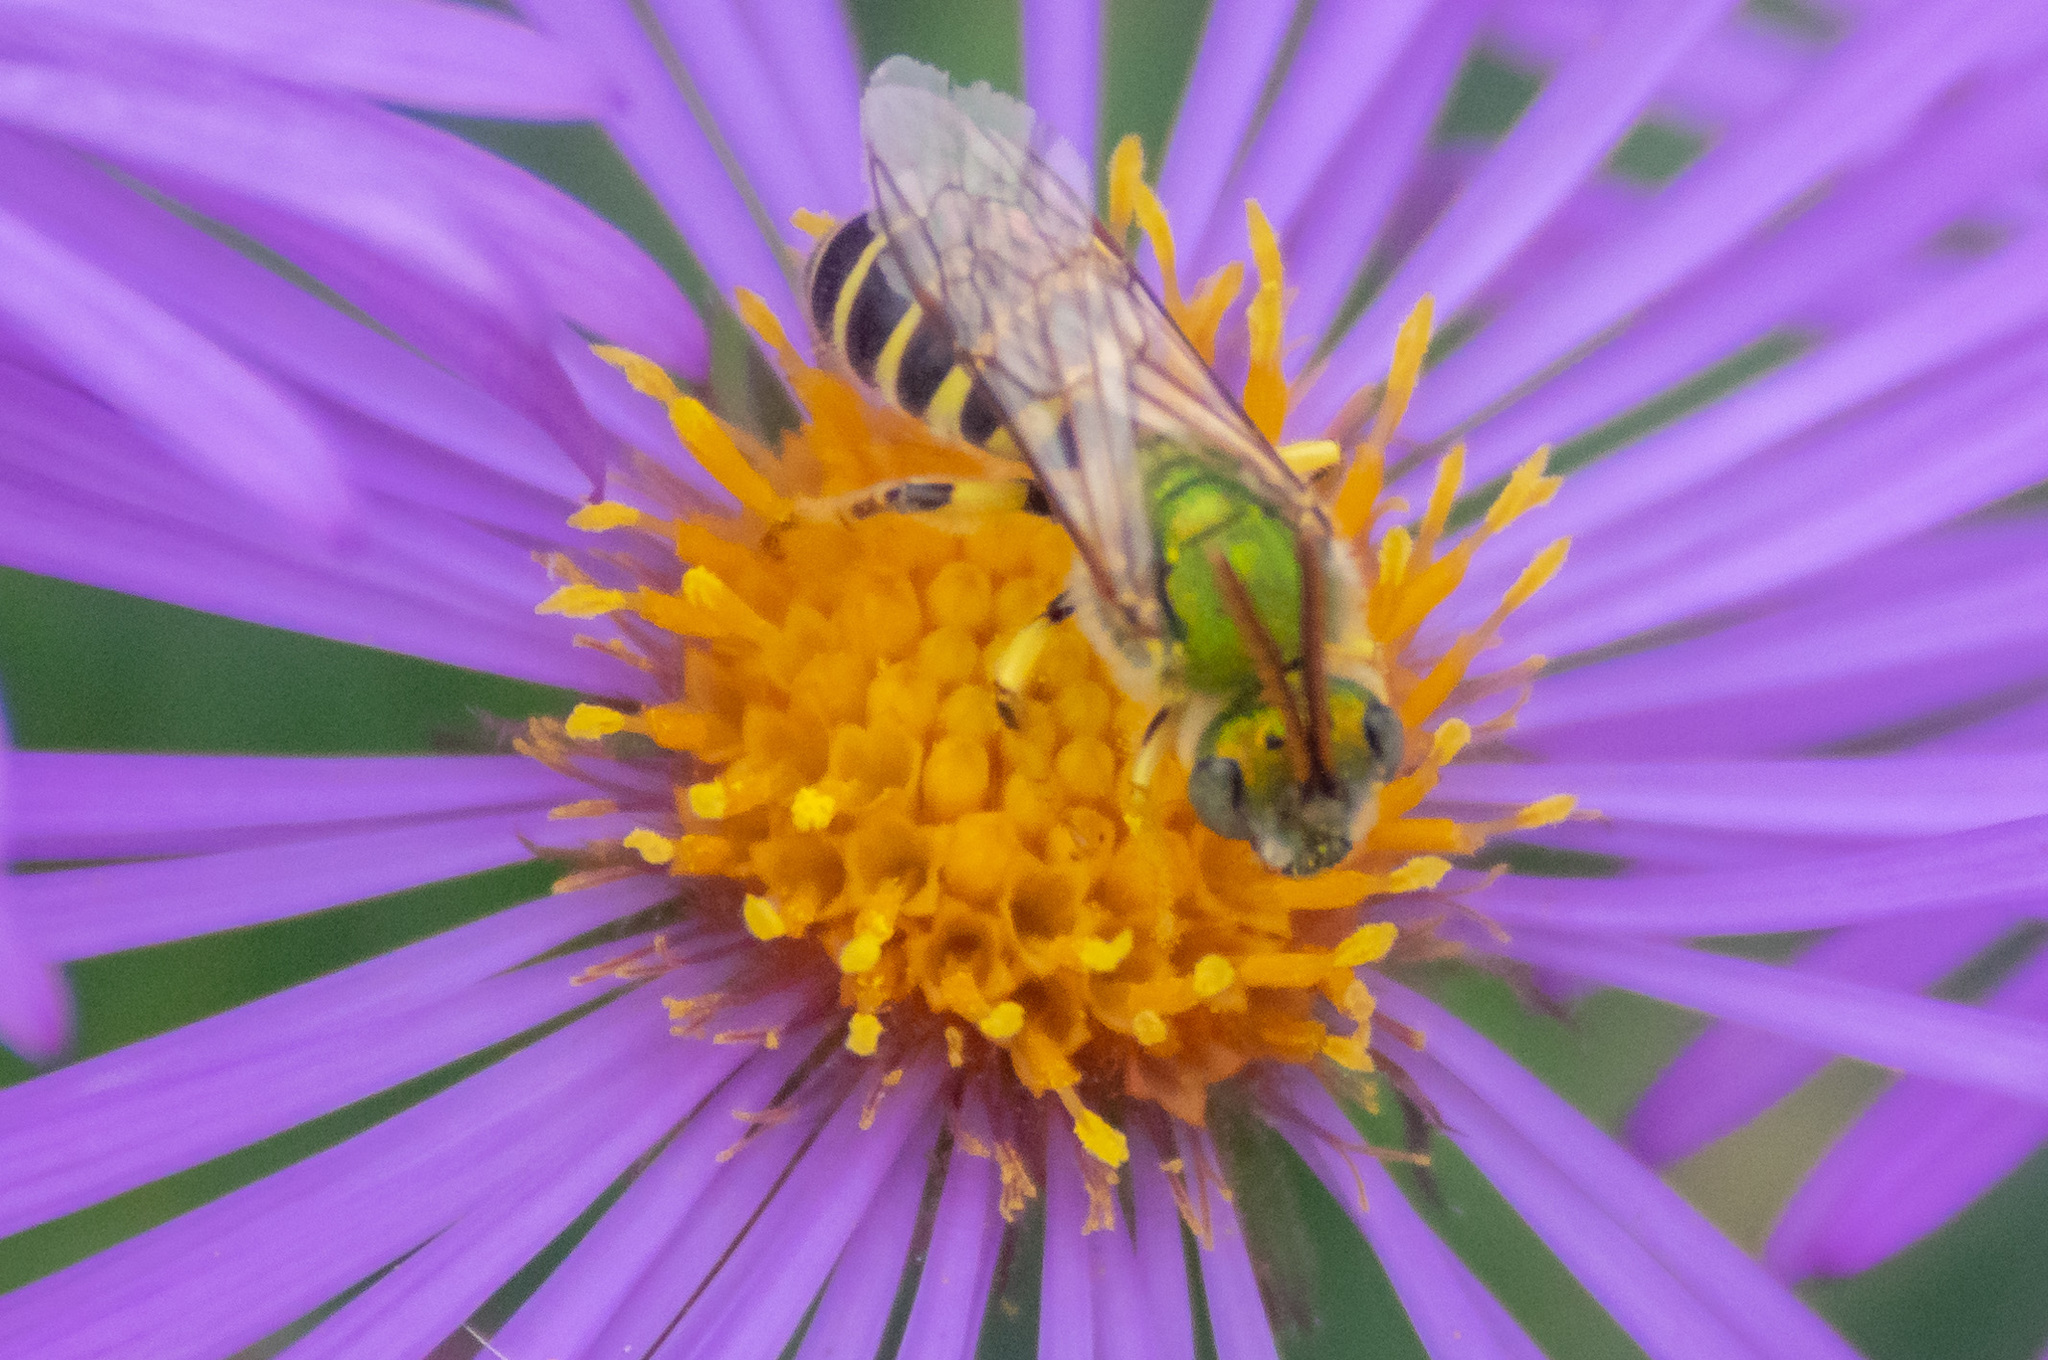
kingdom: Animalia
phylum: Arthropoda
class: Insecta
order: Hymenoptera
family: Halictidae
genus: Agapostemon
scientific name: Agapostemon virescens
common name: Bicolored striped sweat bee
